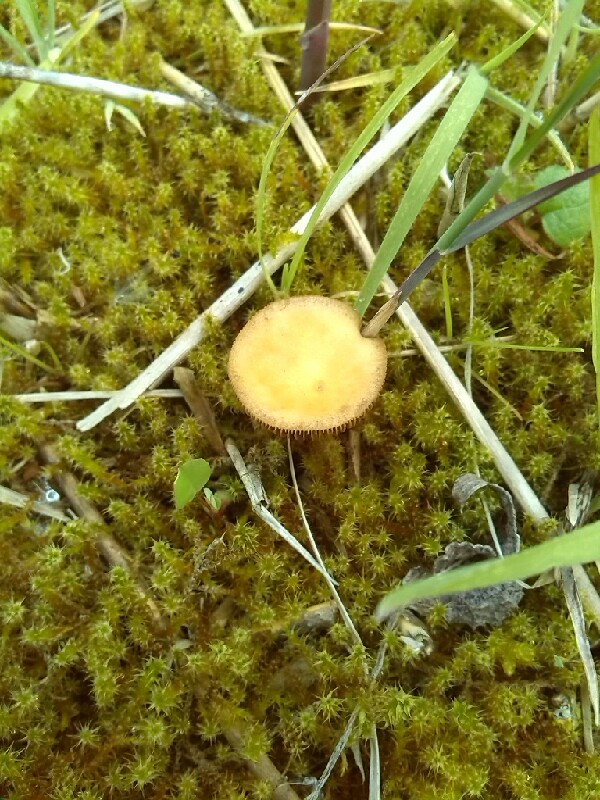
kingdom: Fungi
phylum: Basidiomycota
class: Agaricomycetes
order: Agaricales
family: Hymenogastraceae
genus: Psilocybe
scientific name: Psilocybe coronilla
